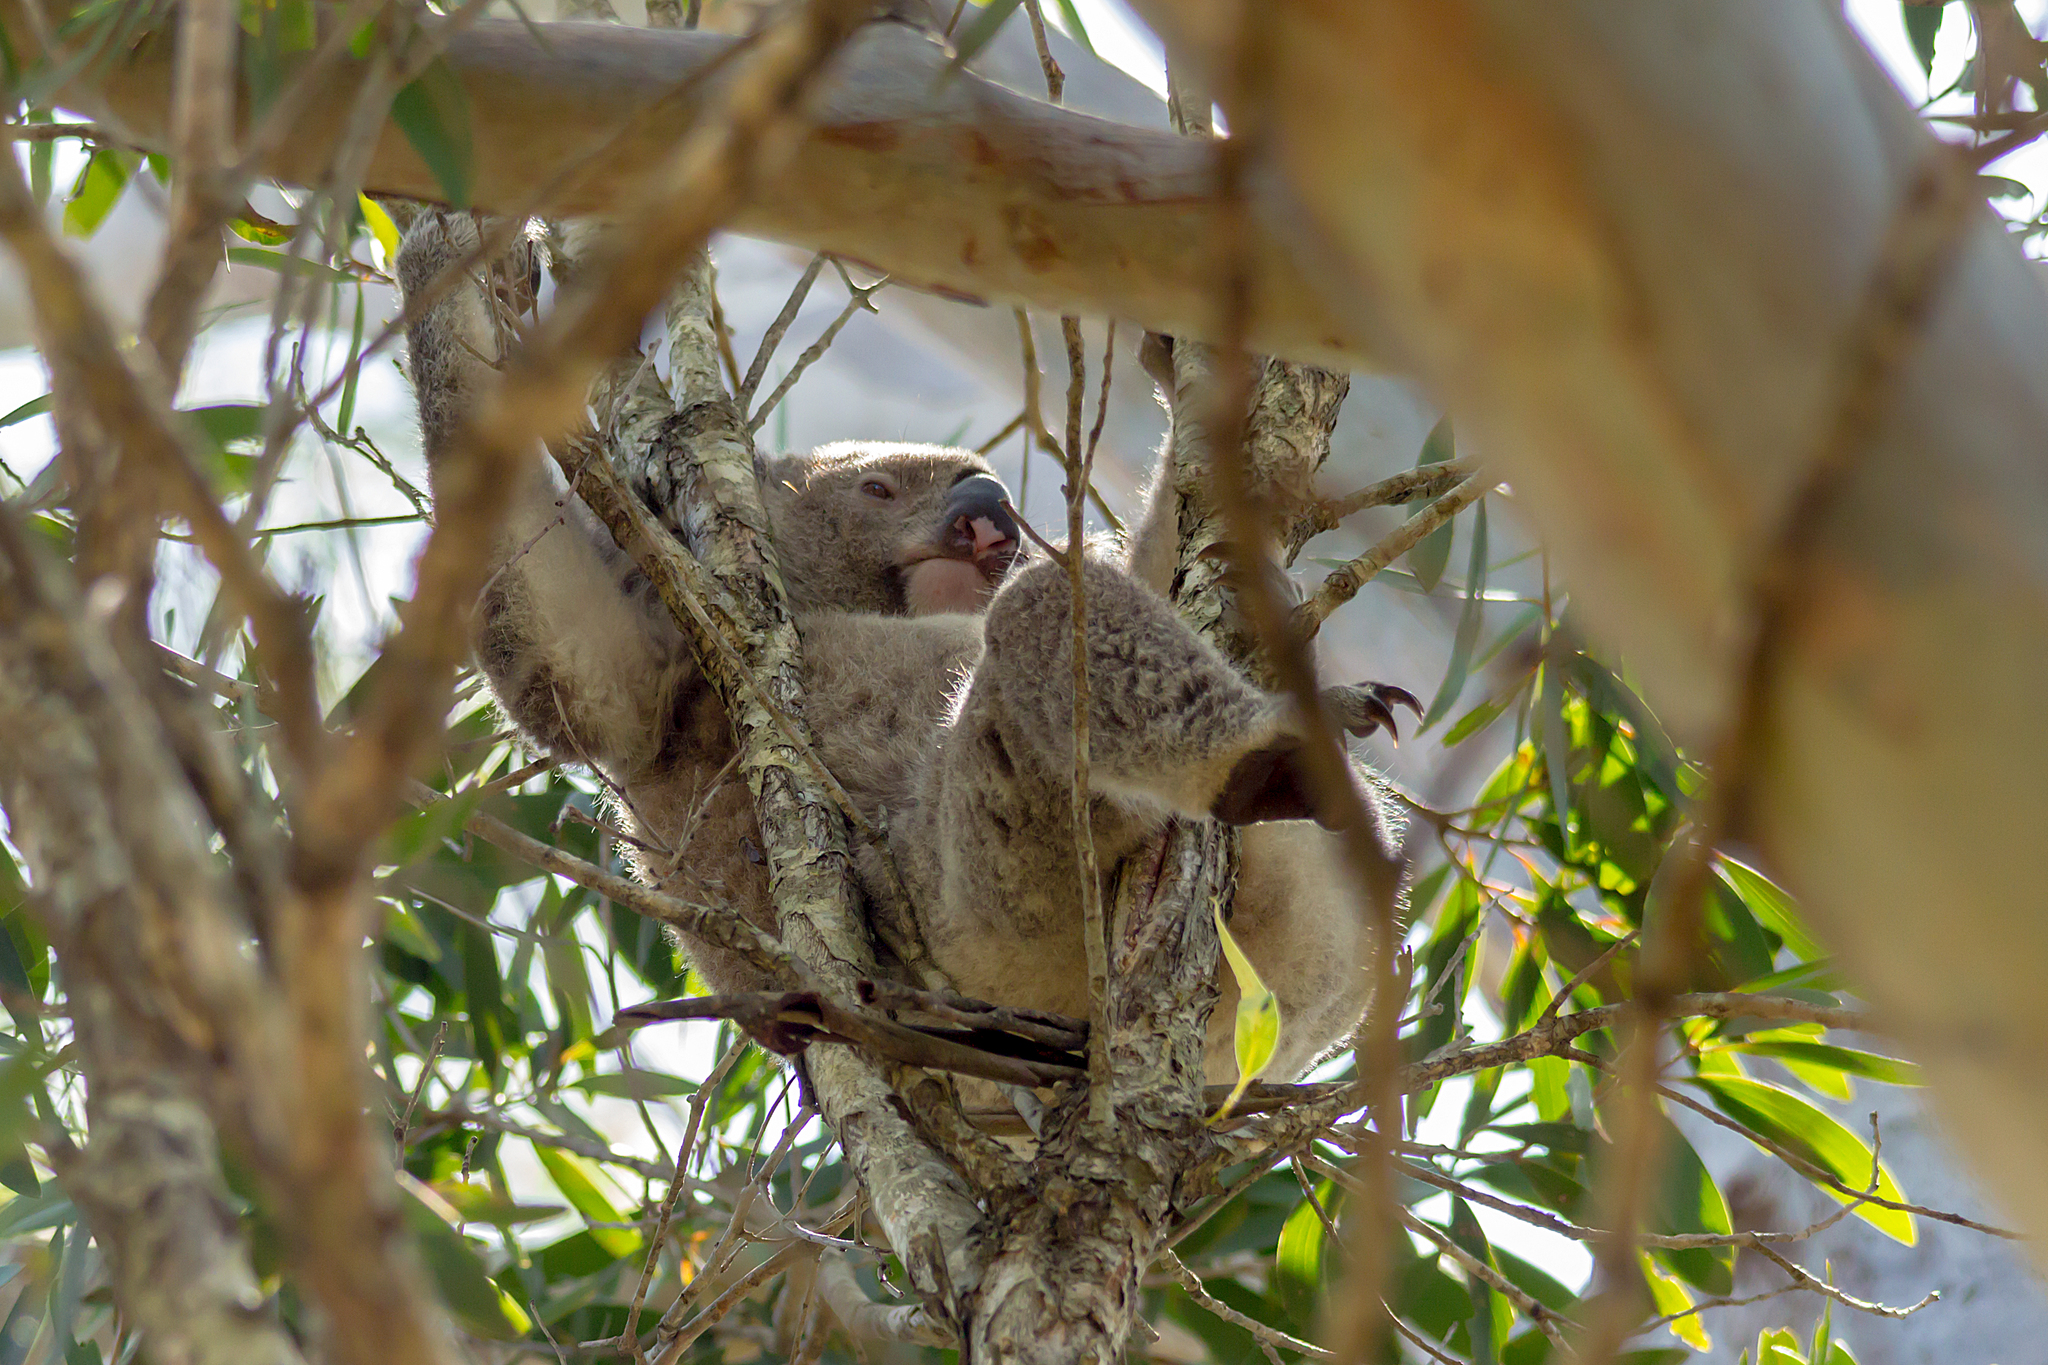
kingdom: Animalia
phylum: Chordata
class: Mammalia
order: Diprotodontia
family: Phascolarctidae
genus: Phascolarctos
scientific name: Phascolarctos cinereus
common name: Koala
